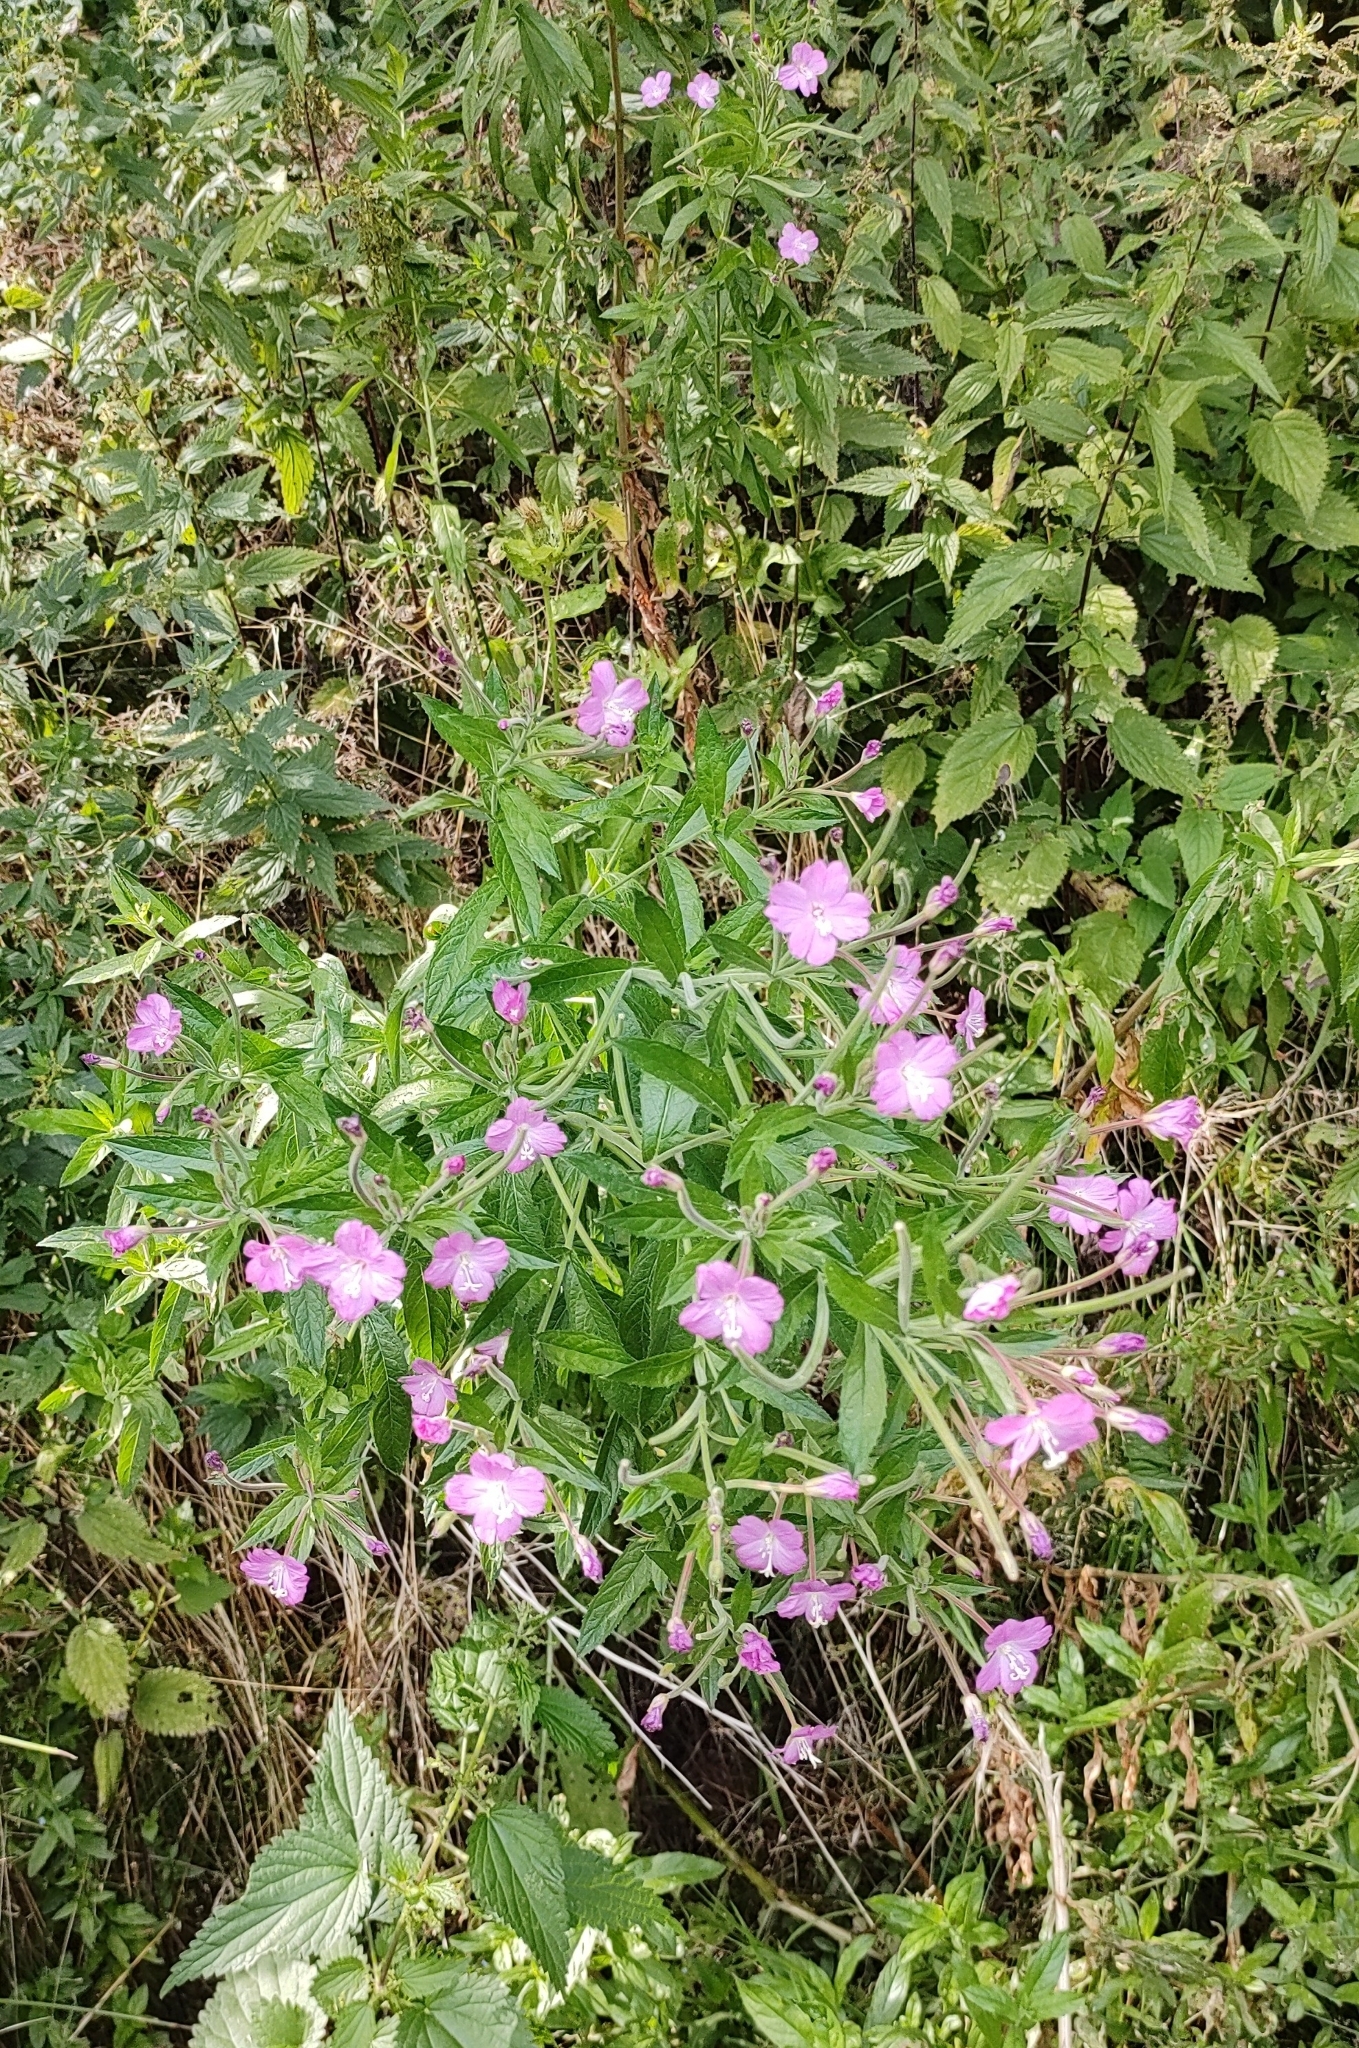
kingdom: Plantae
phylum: Tracheophyta
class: Magnoliopsida
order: Myrtales
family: Onagraceae
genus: Epilobium
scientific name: Epilobium hirsutum
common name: Great willowherb
